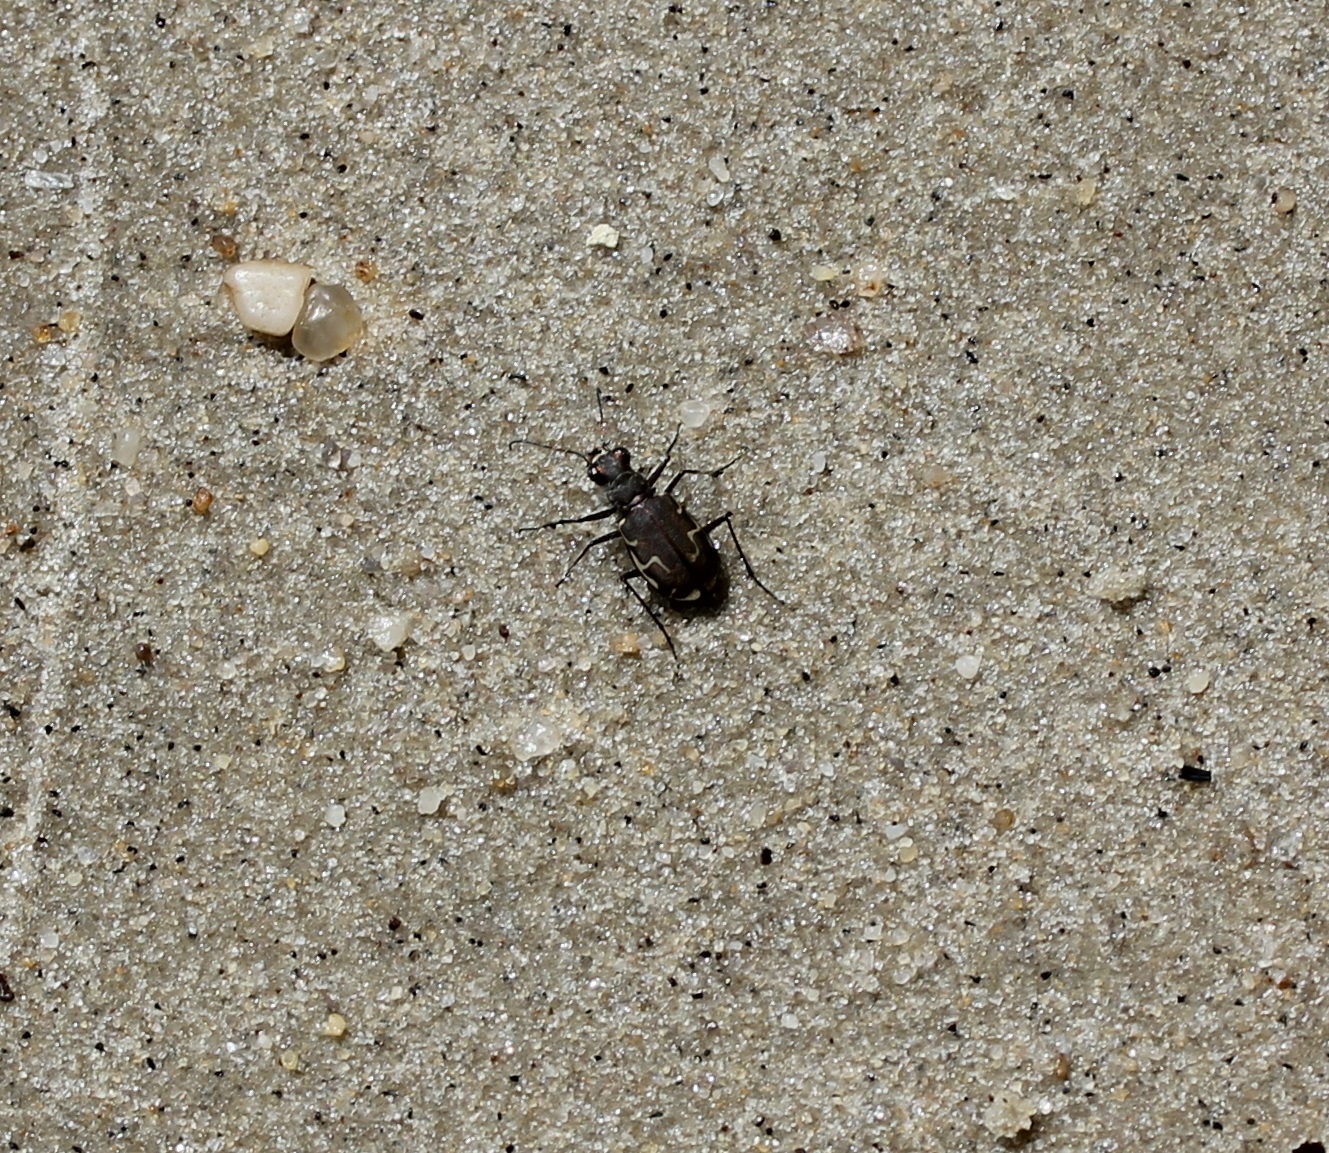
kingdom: Animalia
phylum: Arthropoda
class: Insecta
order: Coleoptera
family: Carabidae
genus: Cicindela
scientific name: Cicindela repanda
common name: Bronzed tiger beetle
